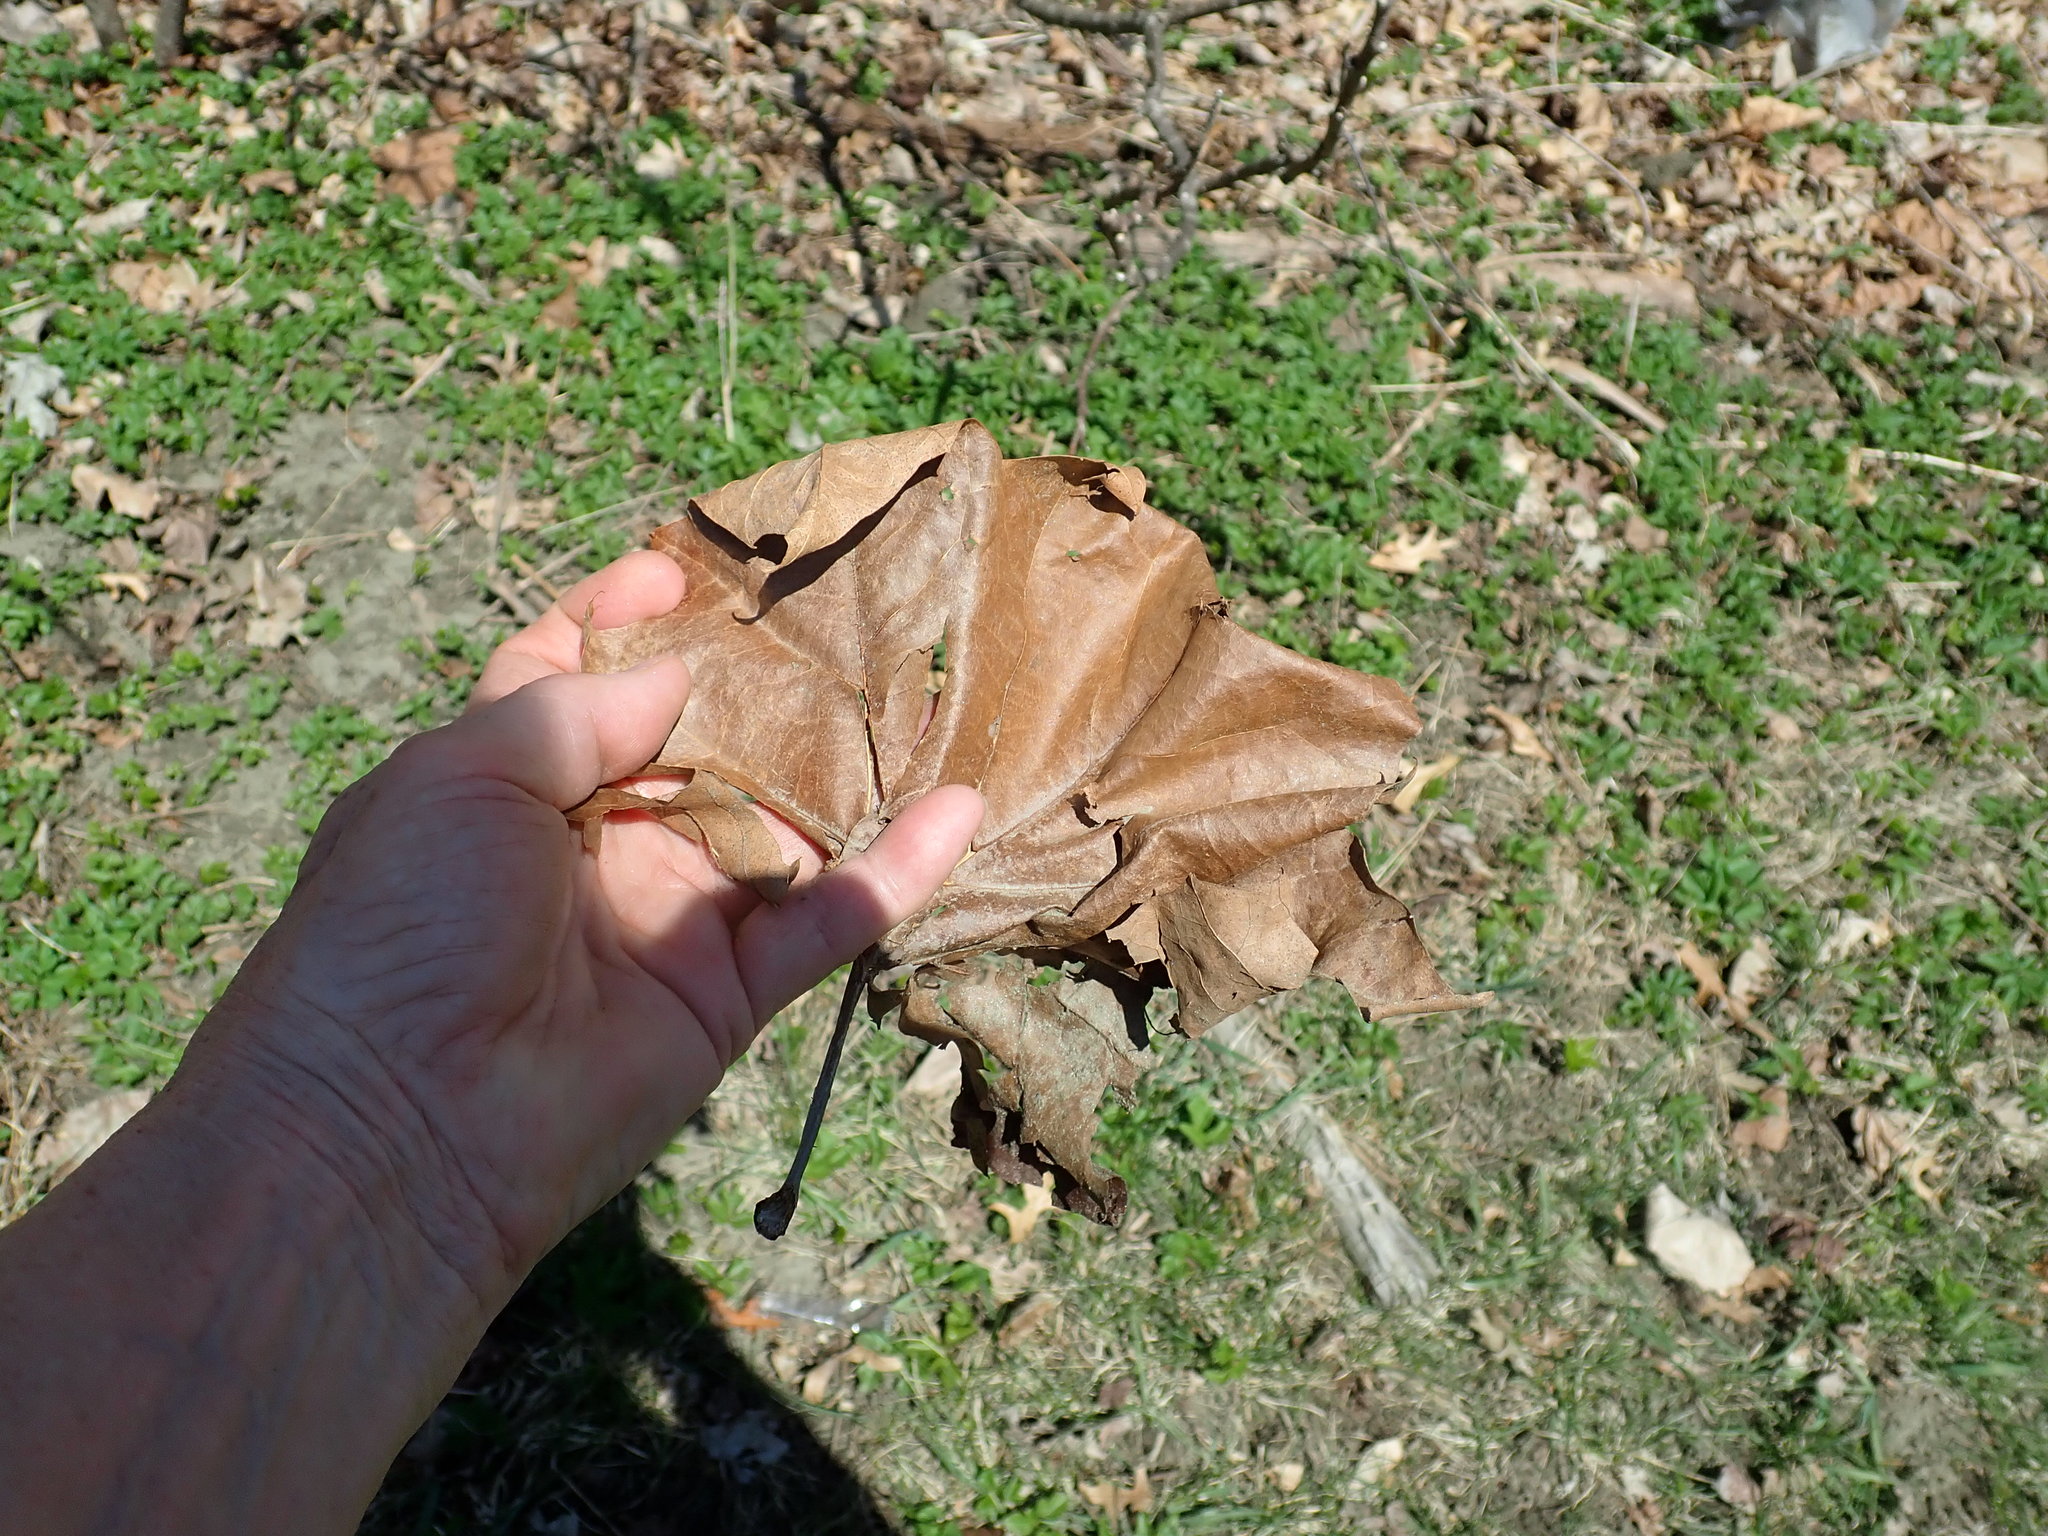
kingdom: Plantae
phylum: Tracheophyta
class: Magnoliopsida
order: Proteales
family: Platanaceae
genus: Platanus
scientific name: Platanus occidentalis
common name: American sycamore
